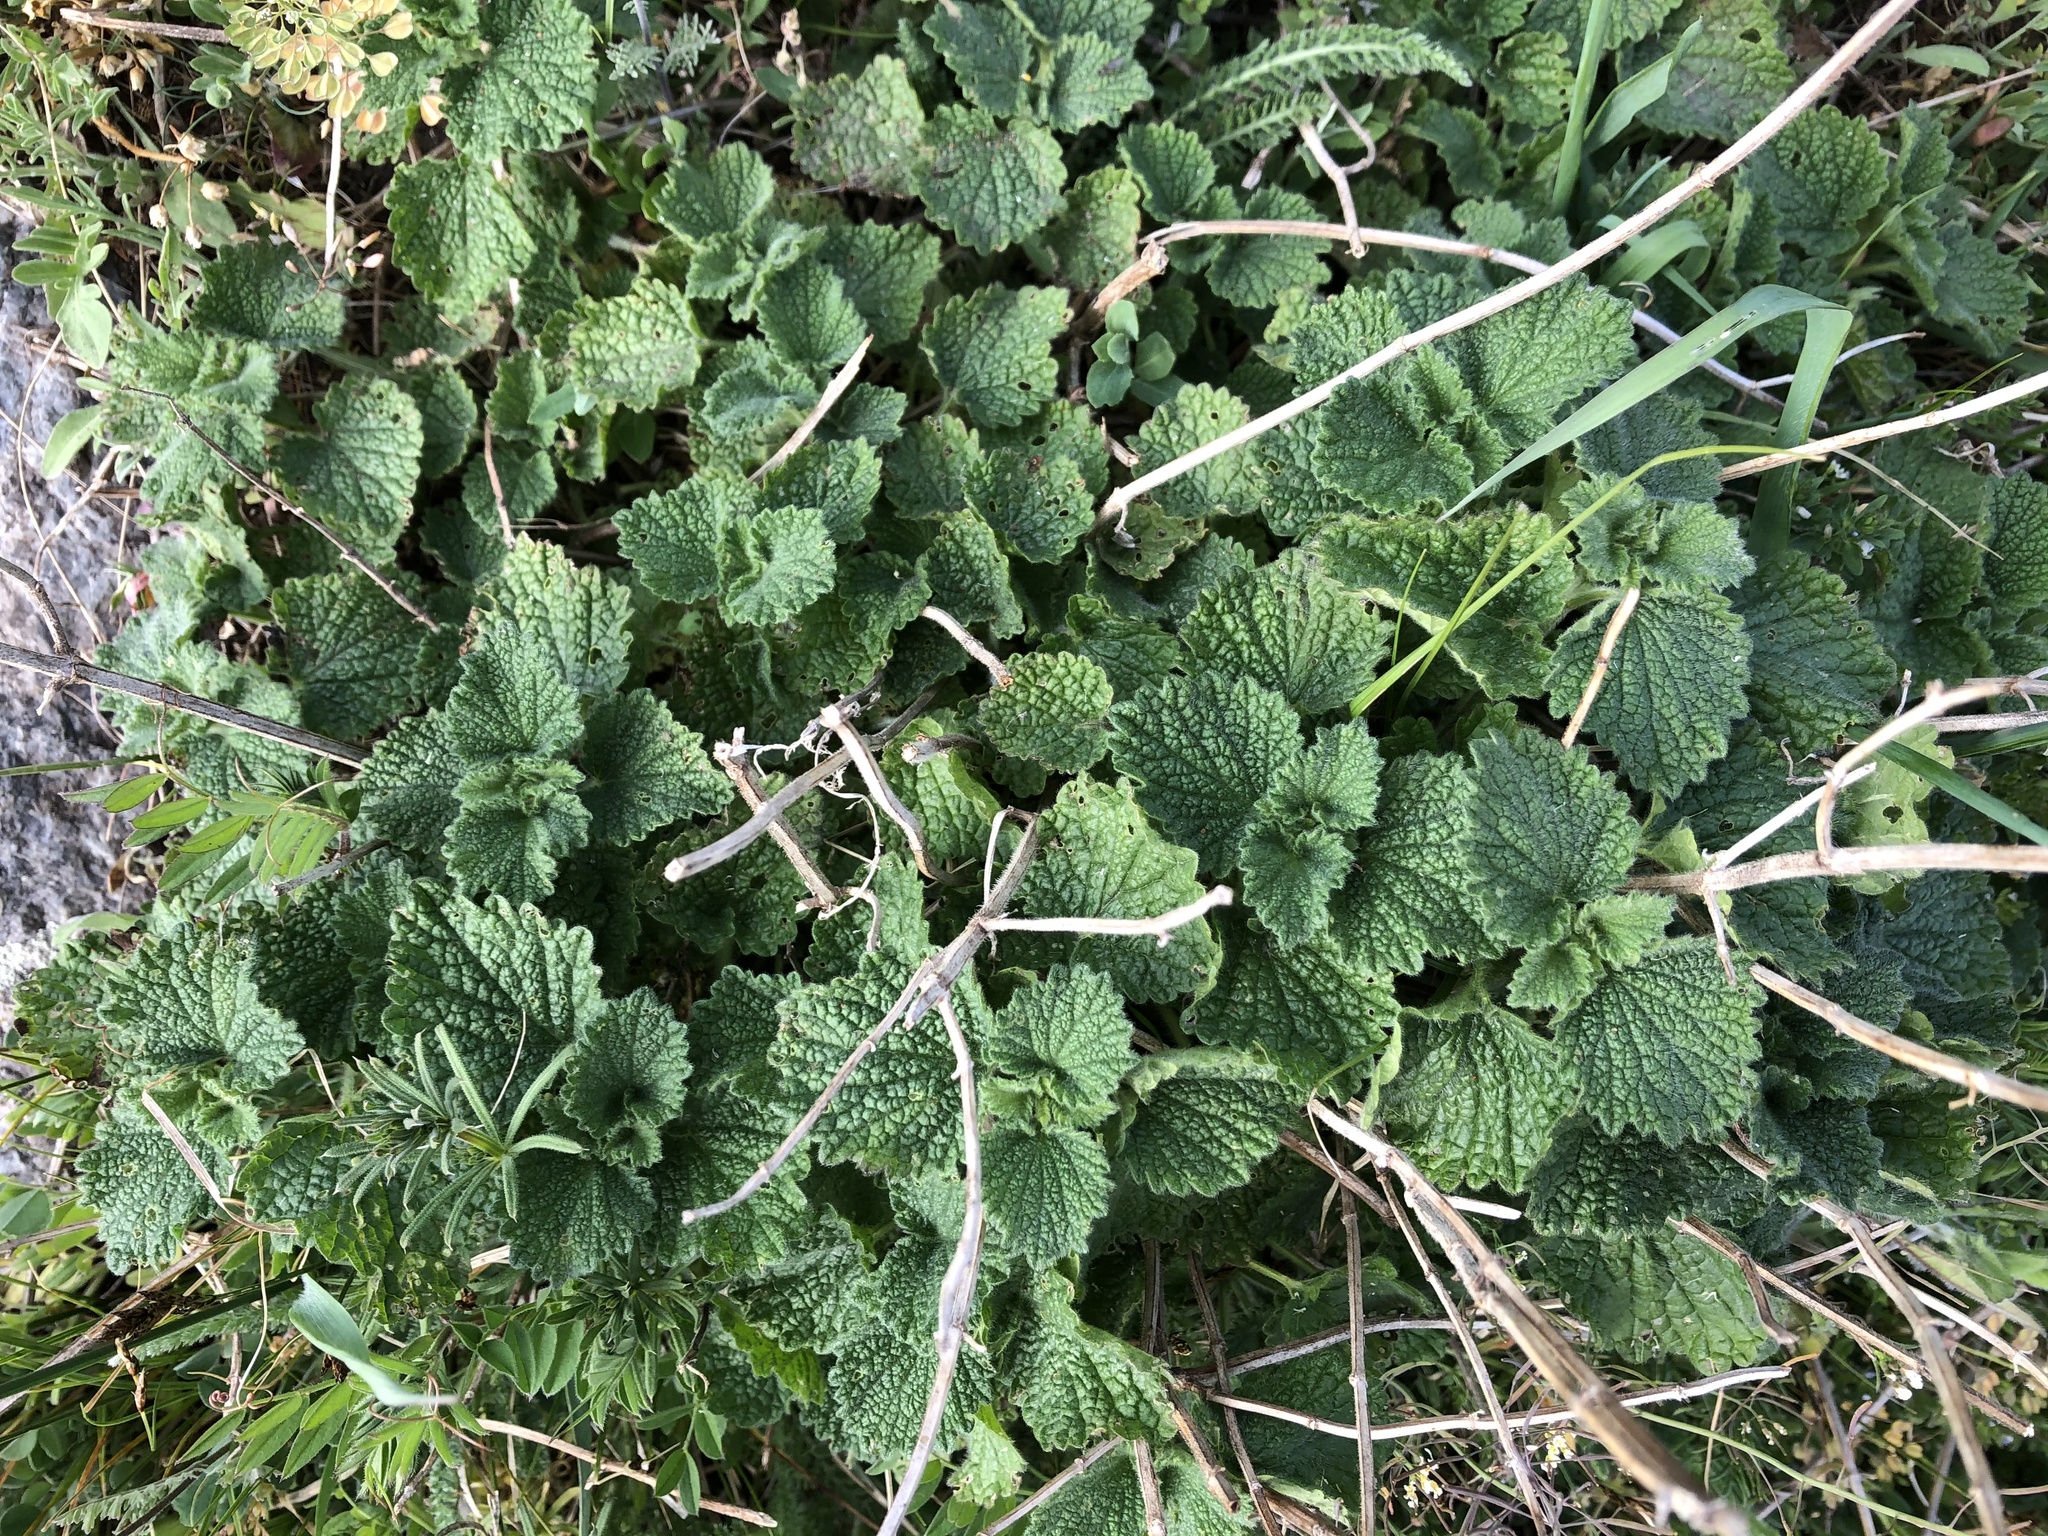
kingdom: Plantae
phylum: Tracheophyta
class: Magnoliopsida
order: Lamiales
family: Lamiaceae
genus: Ballota
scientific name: Ballota nigra
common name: Black horehound
